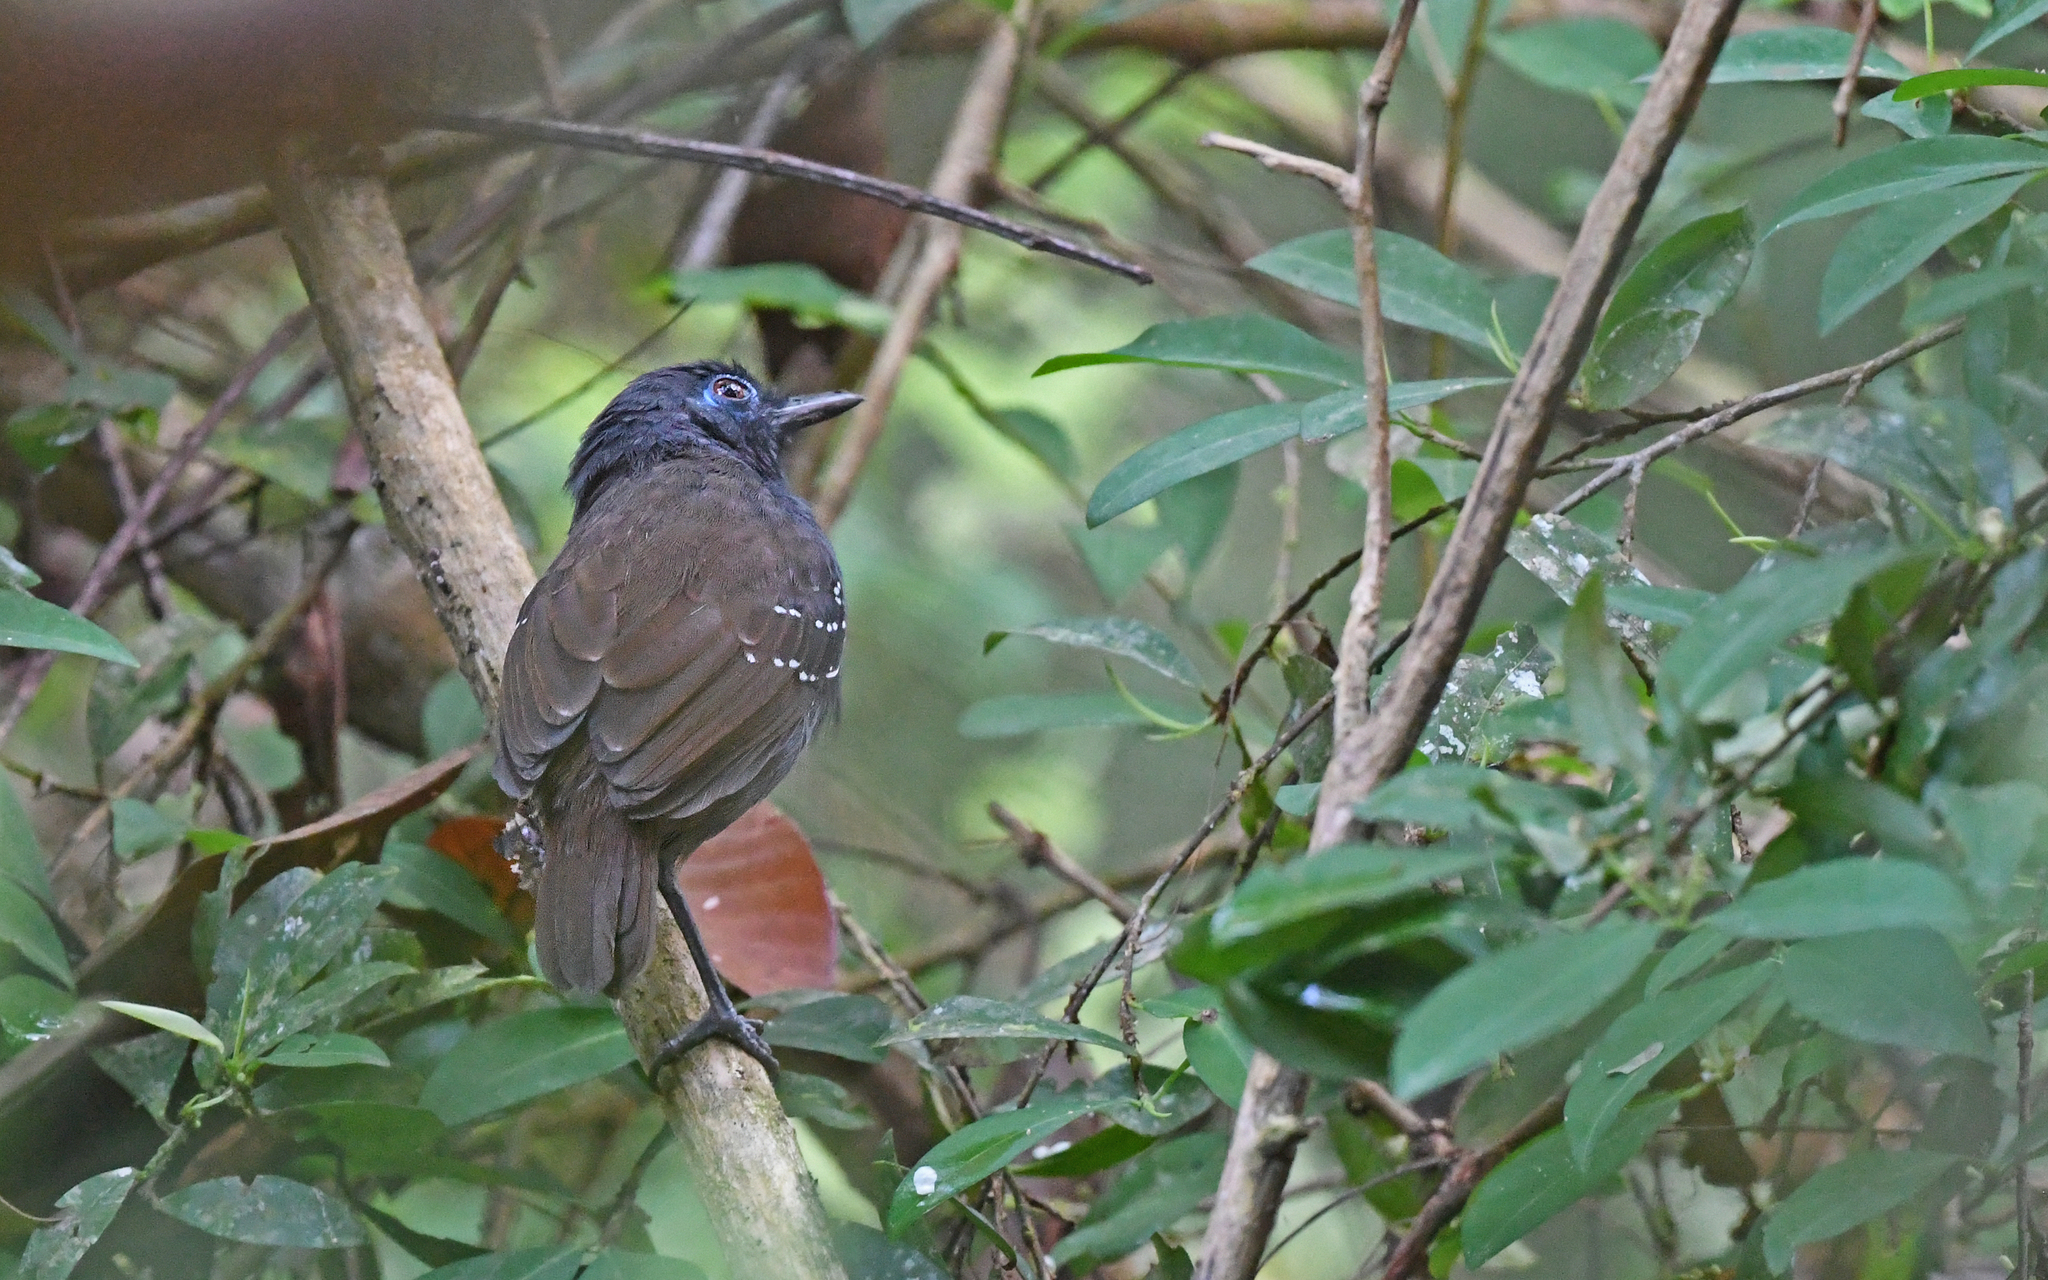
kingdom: Animalia
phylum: Chordata
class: Aves
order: Passeriformes
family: Thamnophilidae
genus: Myrmeciza
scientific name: Myrmeciza exsul
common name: Chestnut-backed antbird
